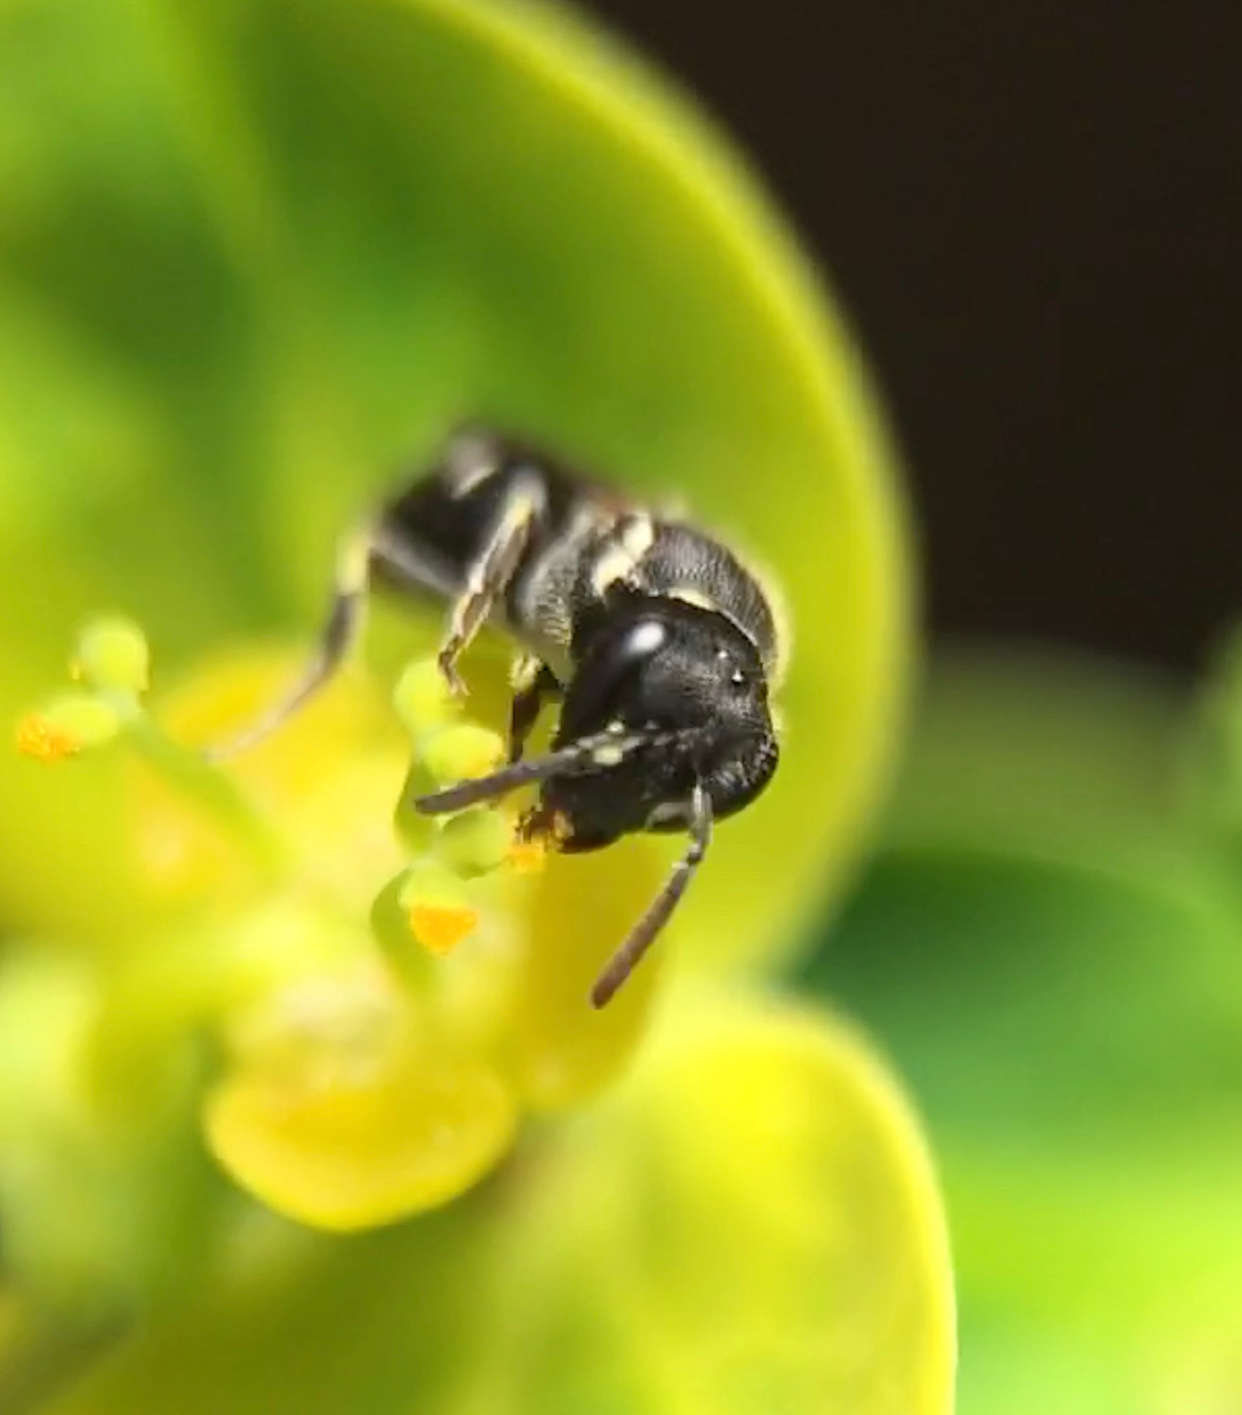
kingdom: Animalia
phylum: Arthropoda
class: Insecta
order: Hymenoptera
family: Colletidae
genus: Hylaeus
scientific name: Hylaeus
